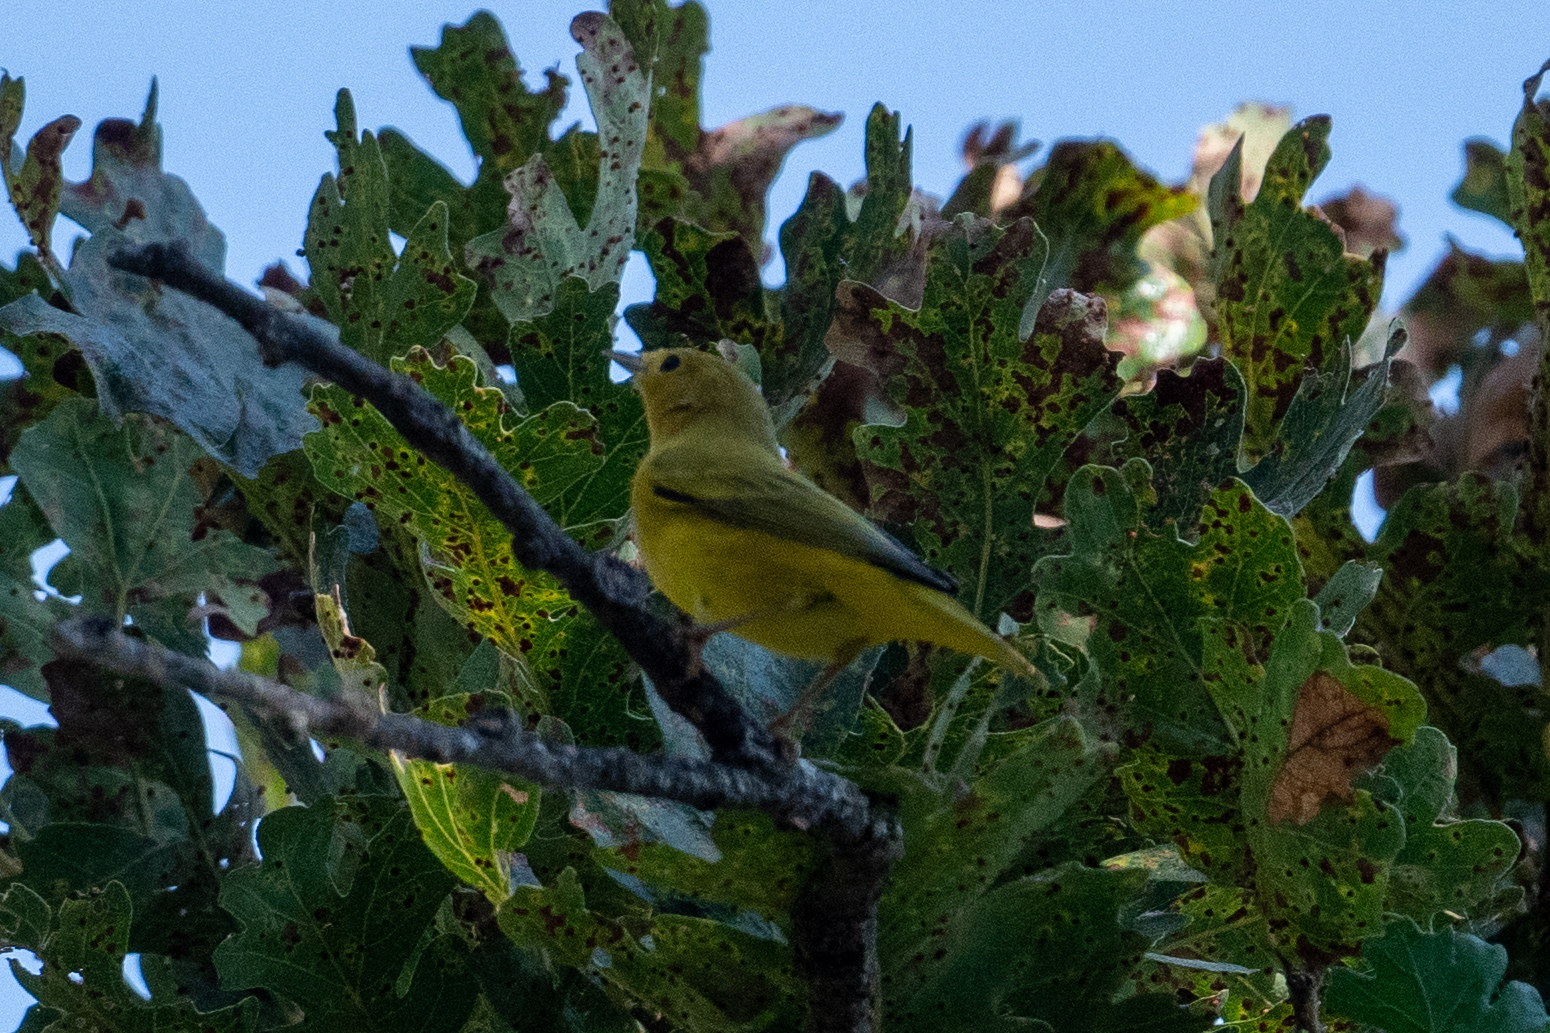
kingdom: Animalia
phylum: Chordata
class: Aves
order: Passeriformes
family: Parulidae
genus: Setophaga
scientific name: Setophaga petechia
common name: Yellow warbler
